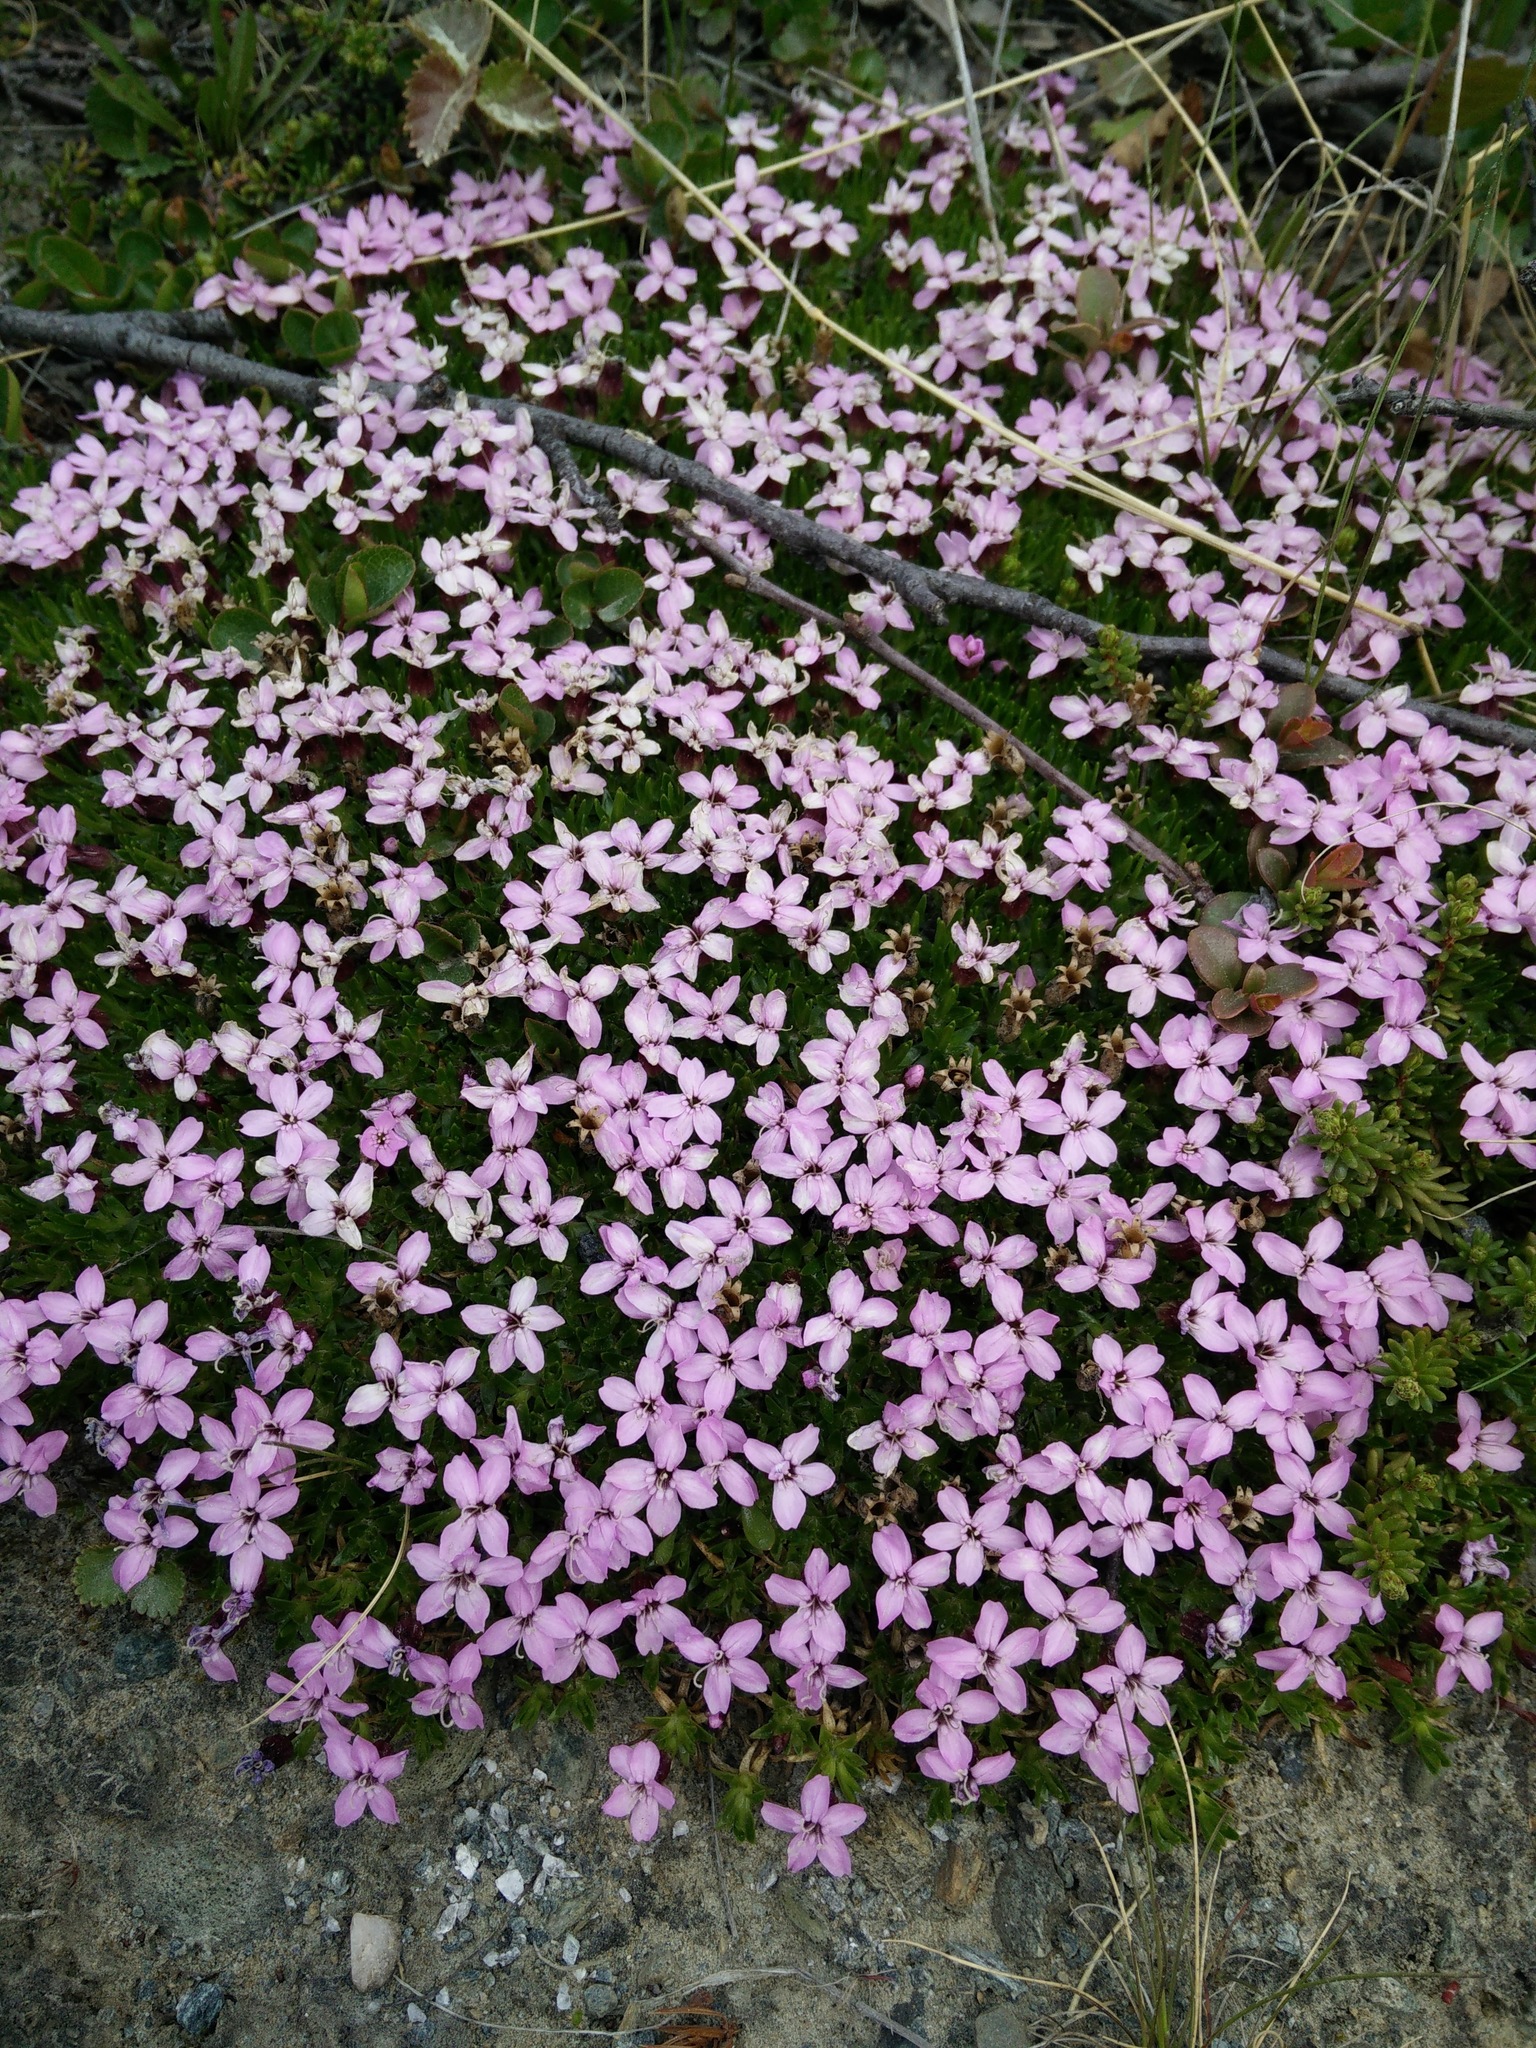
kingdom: Plantae
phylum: Tracheophyta
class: Magnoliopsida
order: Caryophyllales
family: Caryophyllaceae
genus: Silene
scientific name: Silene acaulis
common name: Moss campion
